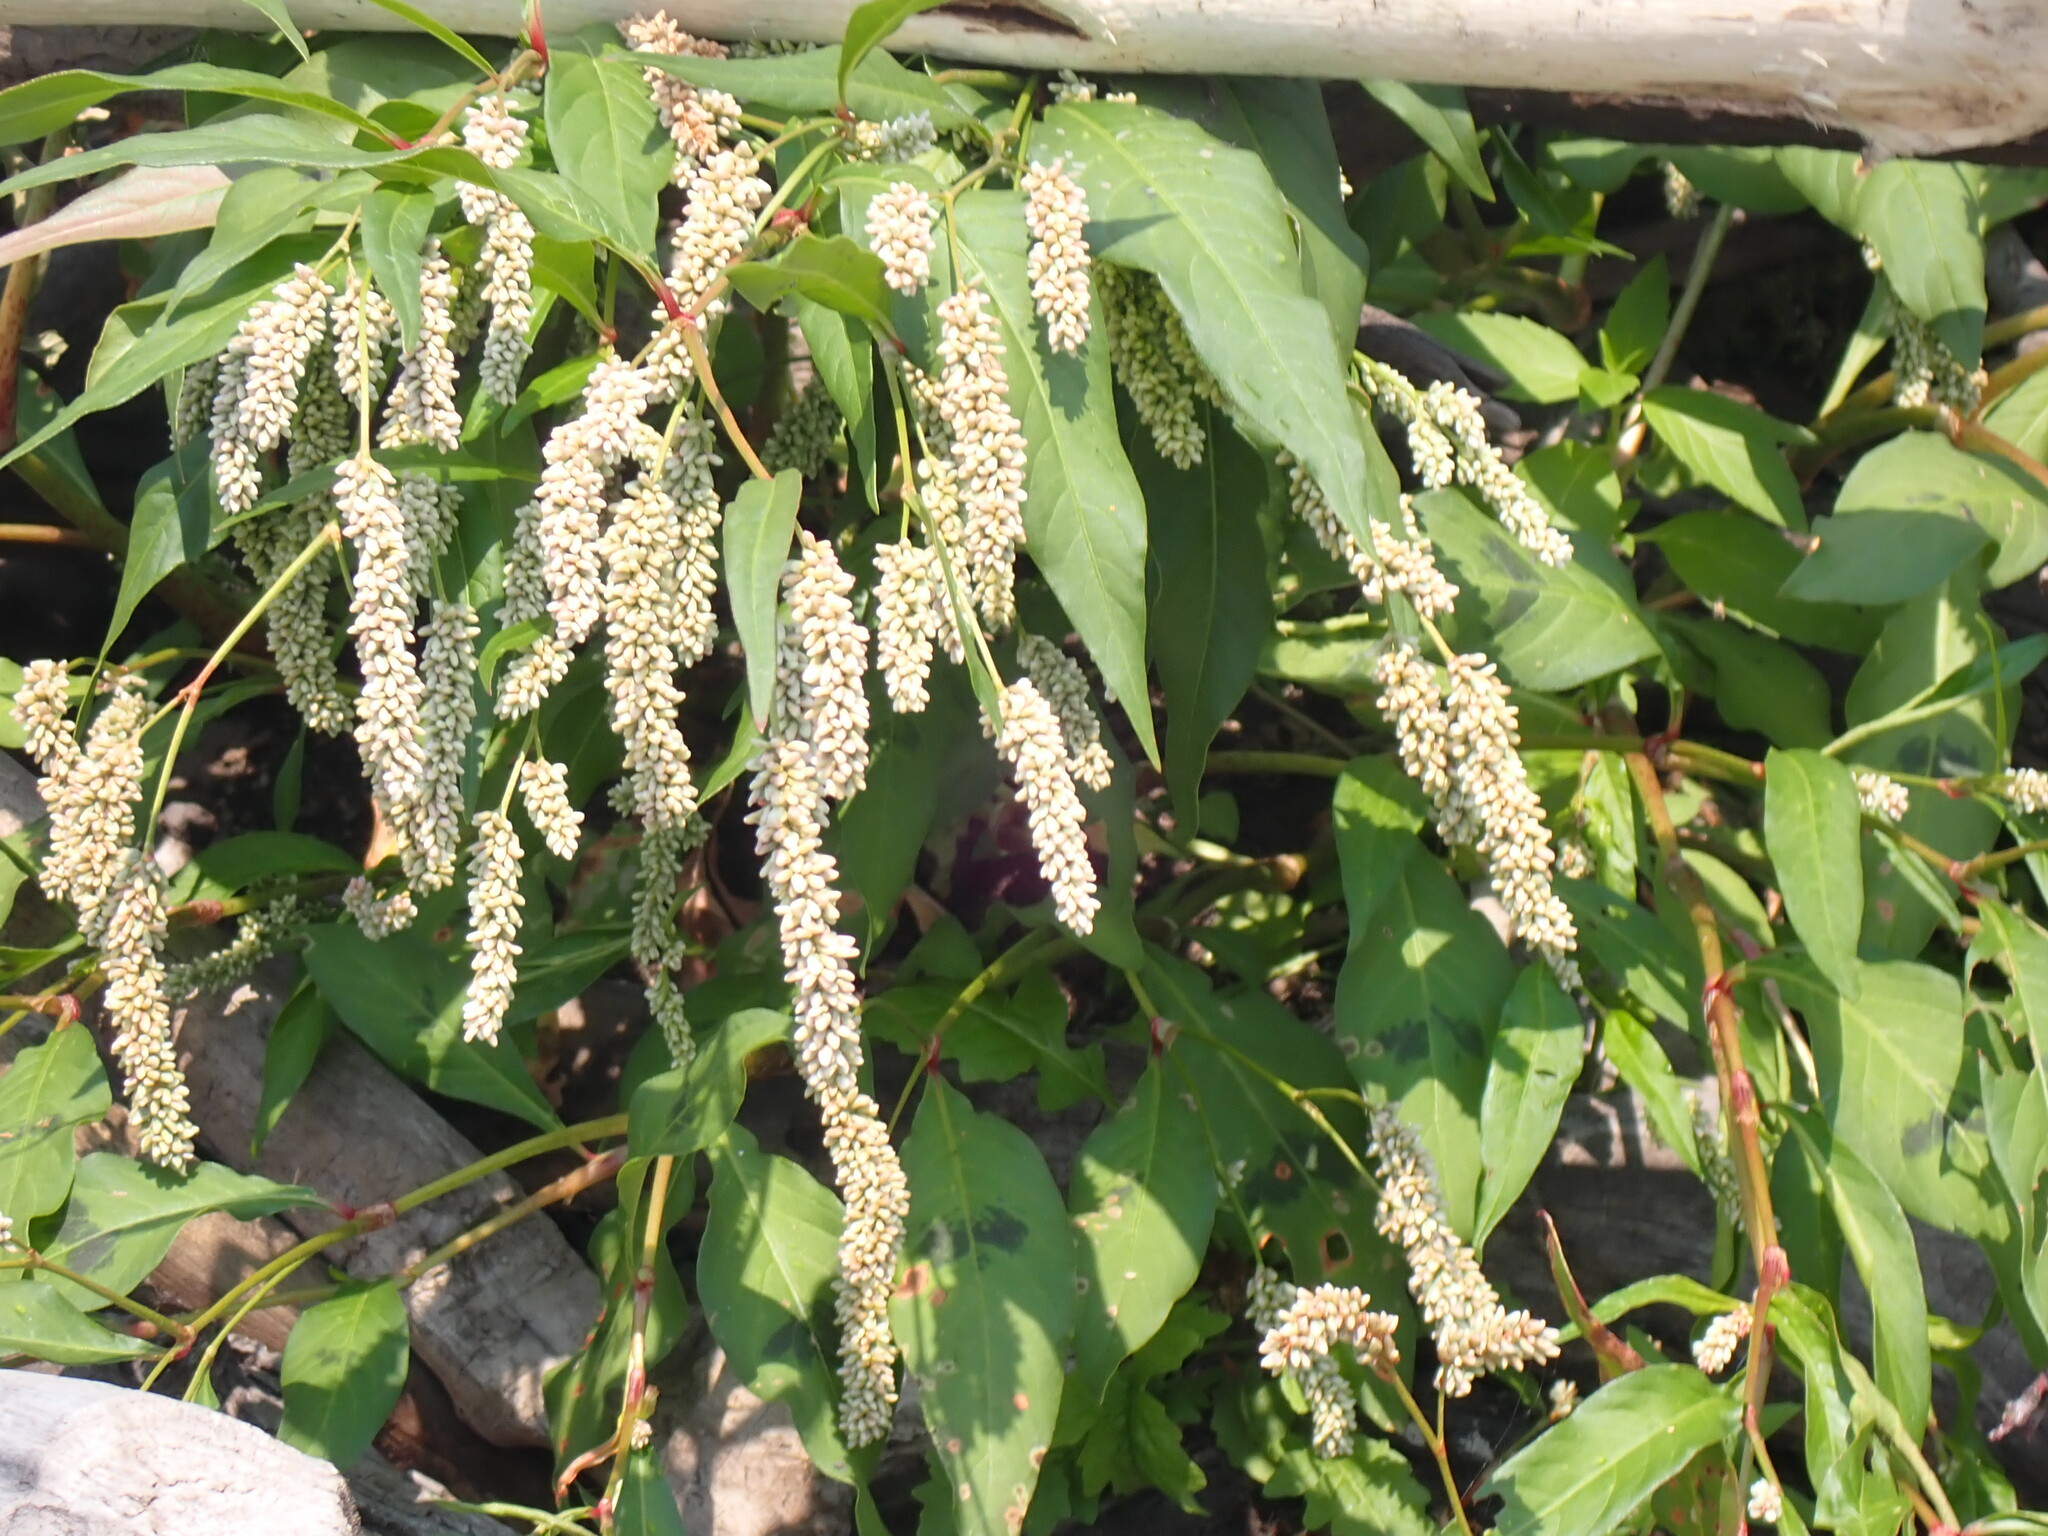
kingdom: Plantae
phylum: Tracheophyta
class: Magnoliopsida
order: Caryophyllales
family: Polygonaceae
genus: Persicaria
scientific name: Persicaria lapathifolia
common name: Curlytop knotweed
